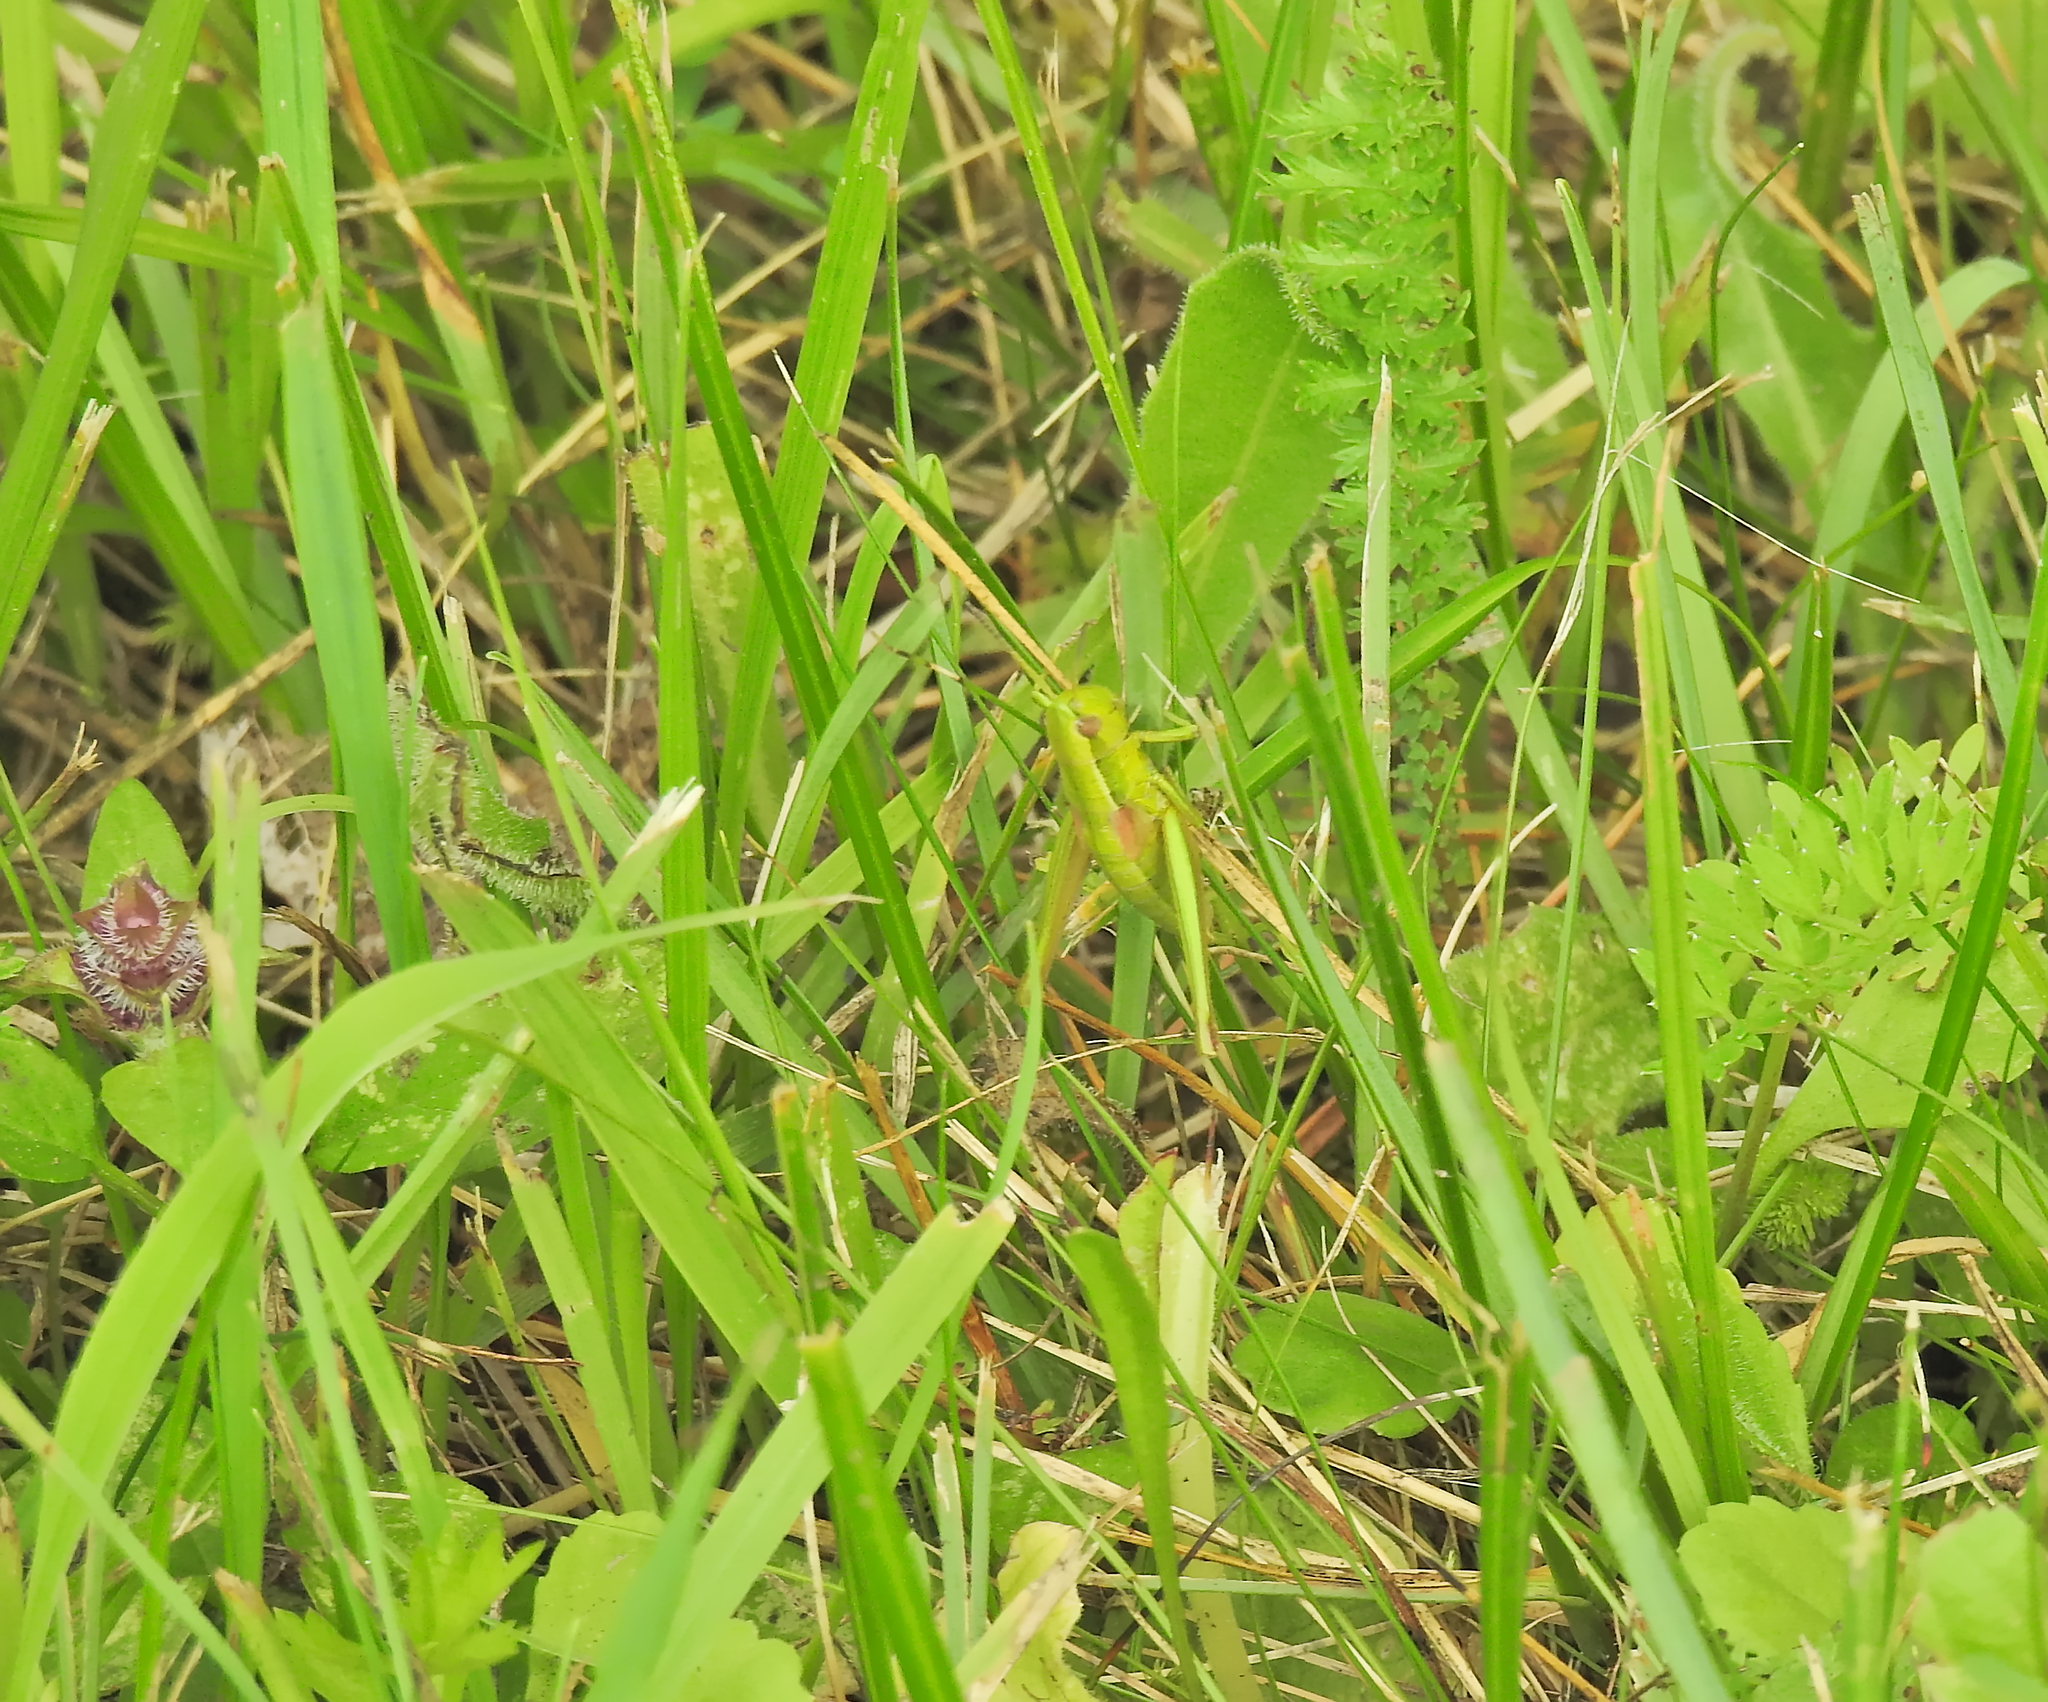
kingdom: Animalia
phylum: Arthropoda
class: Insecta
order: Orthoptera
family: Acrididae
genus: Euthystira
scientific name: Euthystira brachyptera
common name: Small gold grasshopper
